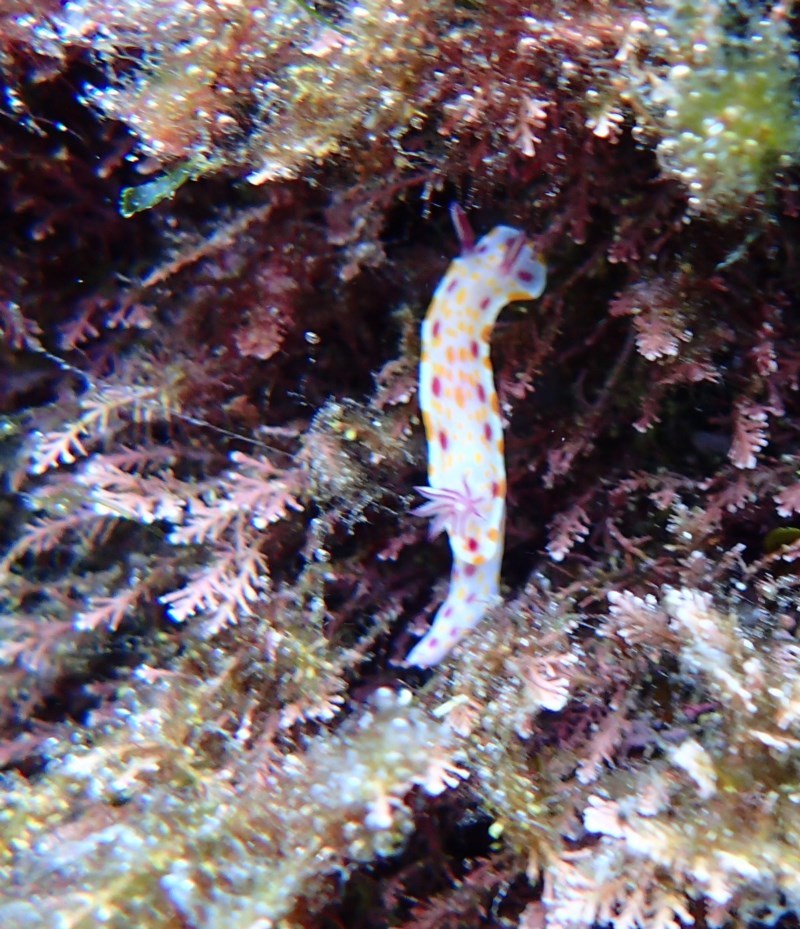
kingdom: Animalia
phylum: Mollusca
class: Gastropoda
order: Nudibranchia
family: Chromodorididae
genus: Ceratosoma
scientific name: Ceratosoma amoenum
